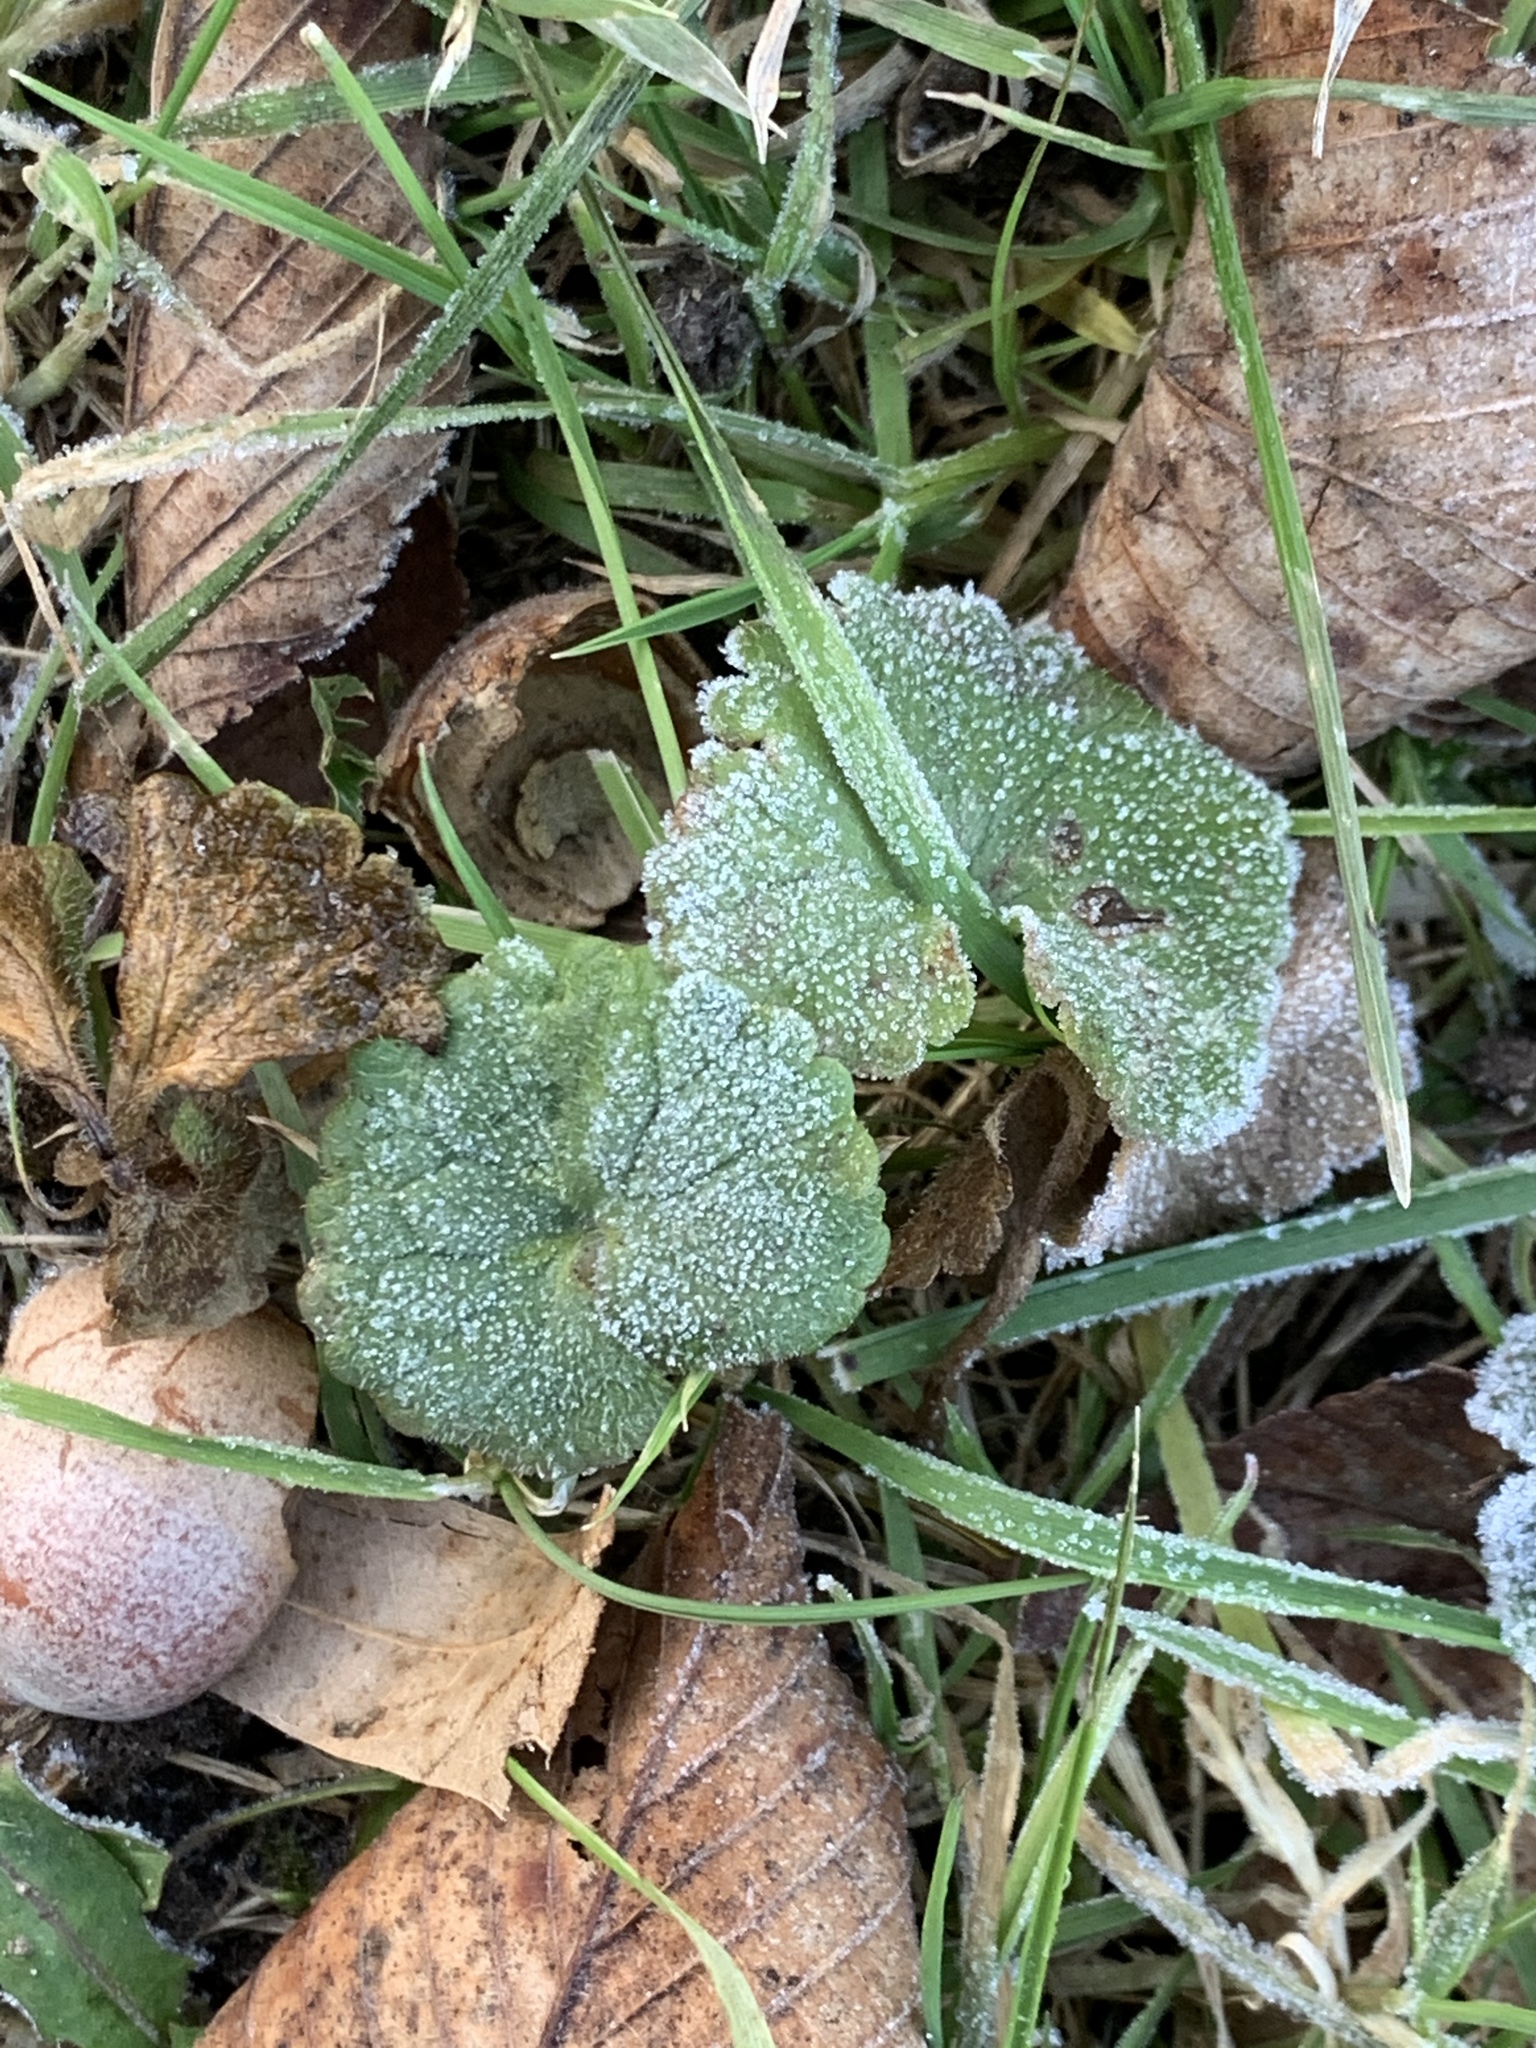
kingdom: Plantae
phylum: Tracheophyta
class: Magnoliopsida
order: Lamiales
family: Lamiaceae
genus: Glechoma
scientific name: Glechoma hederacea
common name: Ground ivy
